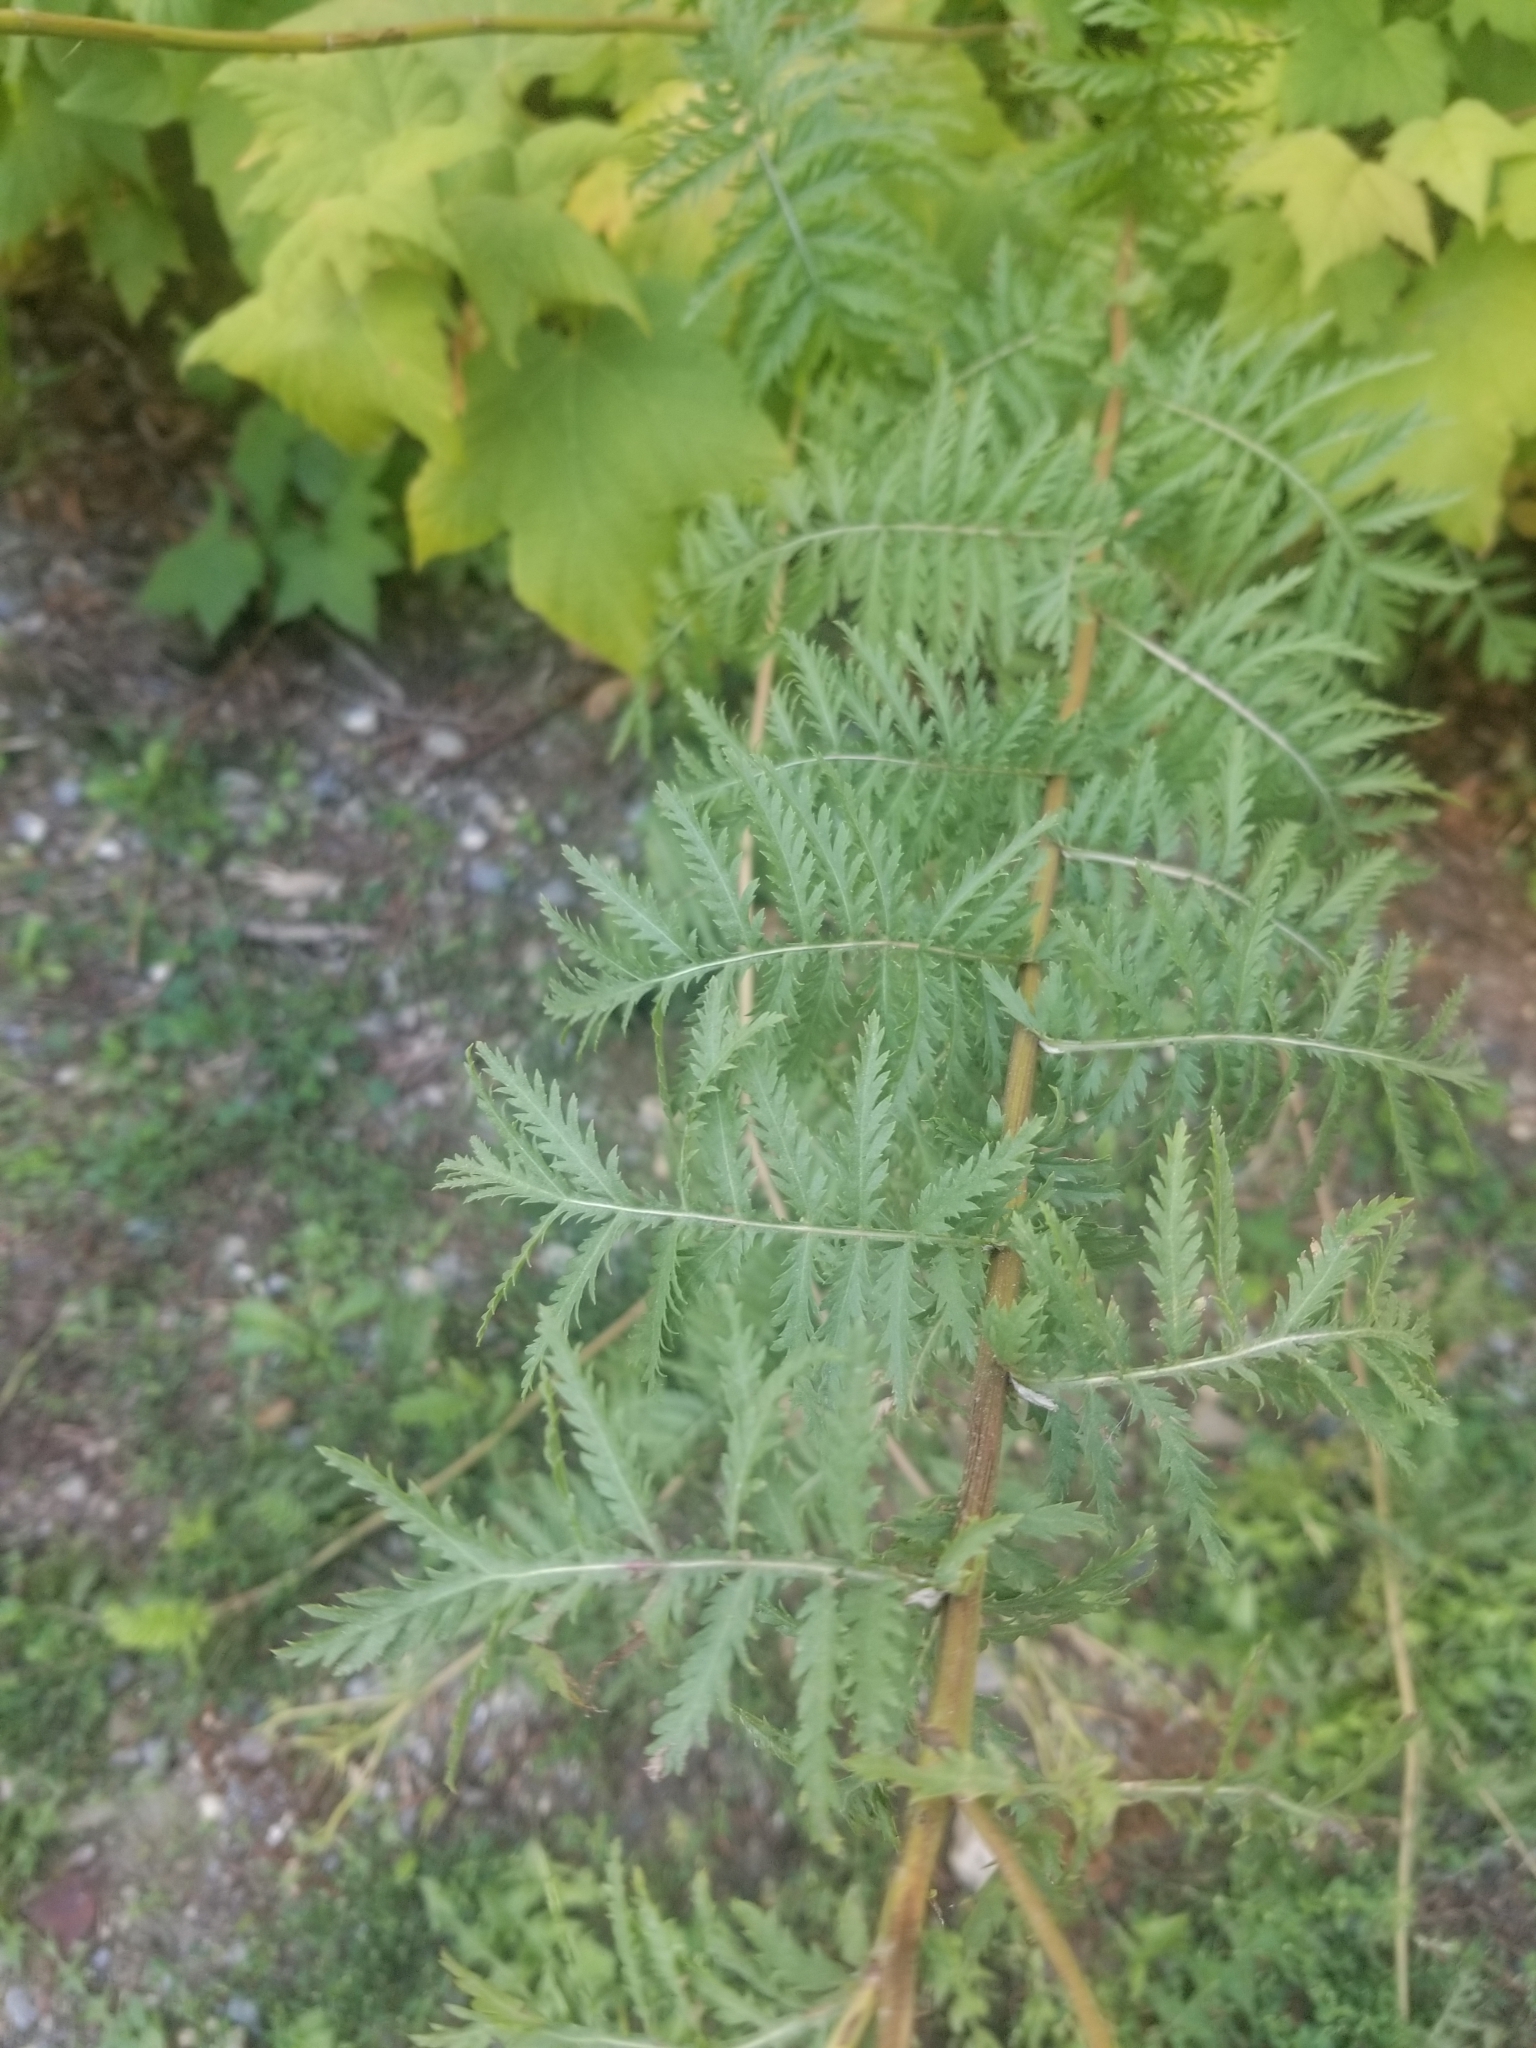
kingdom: Plantae
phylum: Tracheophyta
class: Magnoliopsida
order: Asterales
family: Asteraceae
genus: Tanacetum
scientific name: Tanacetum vulgare
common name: Common tansy
